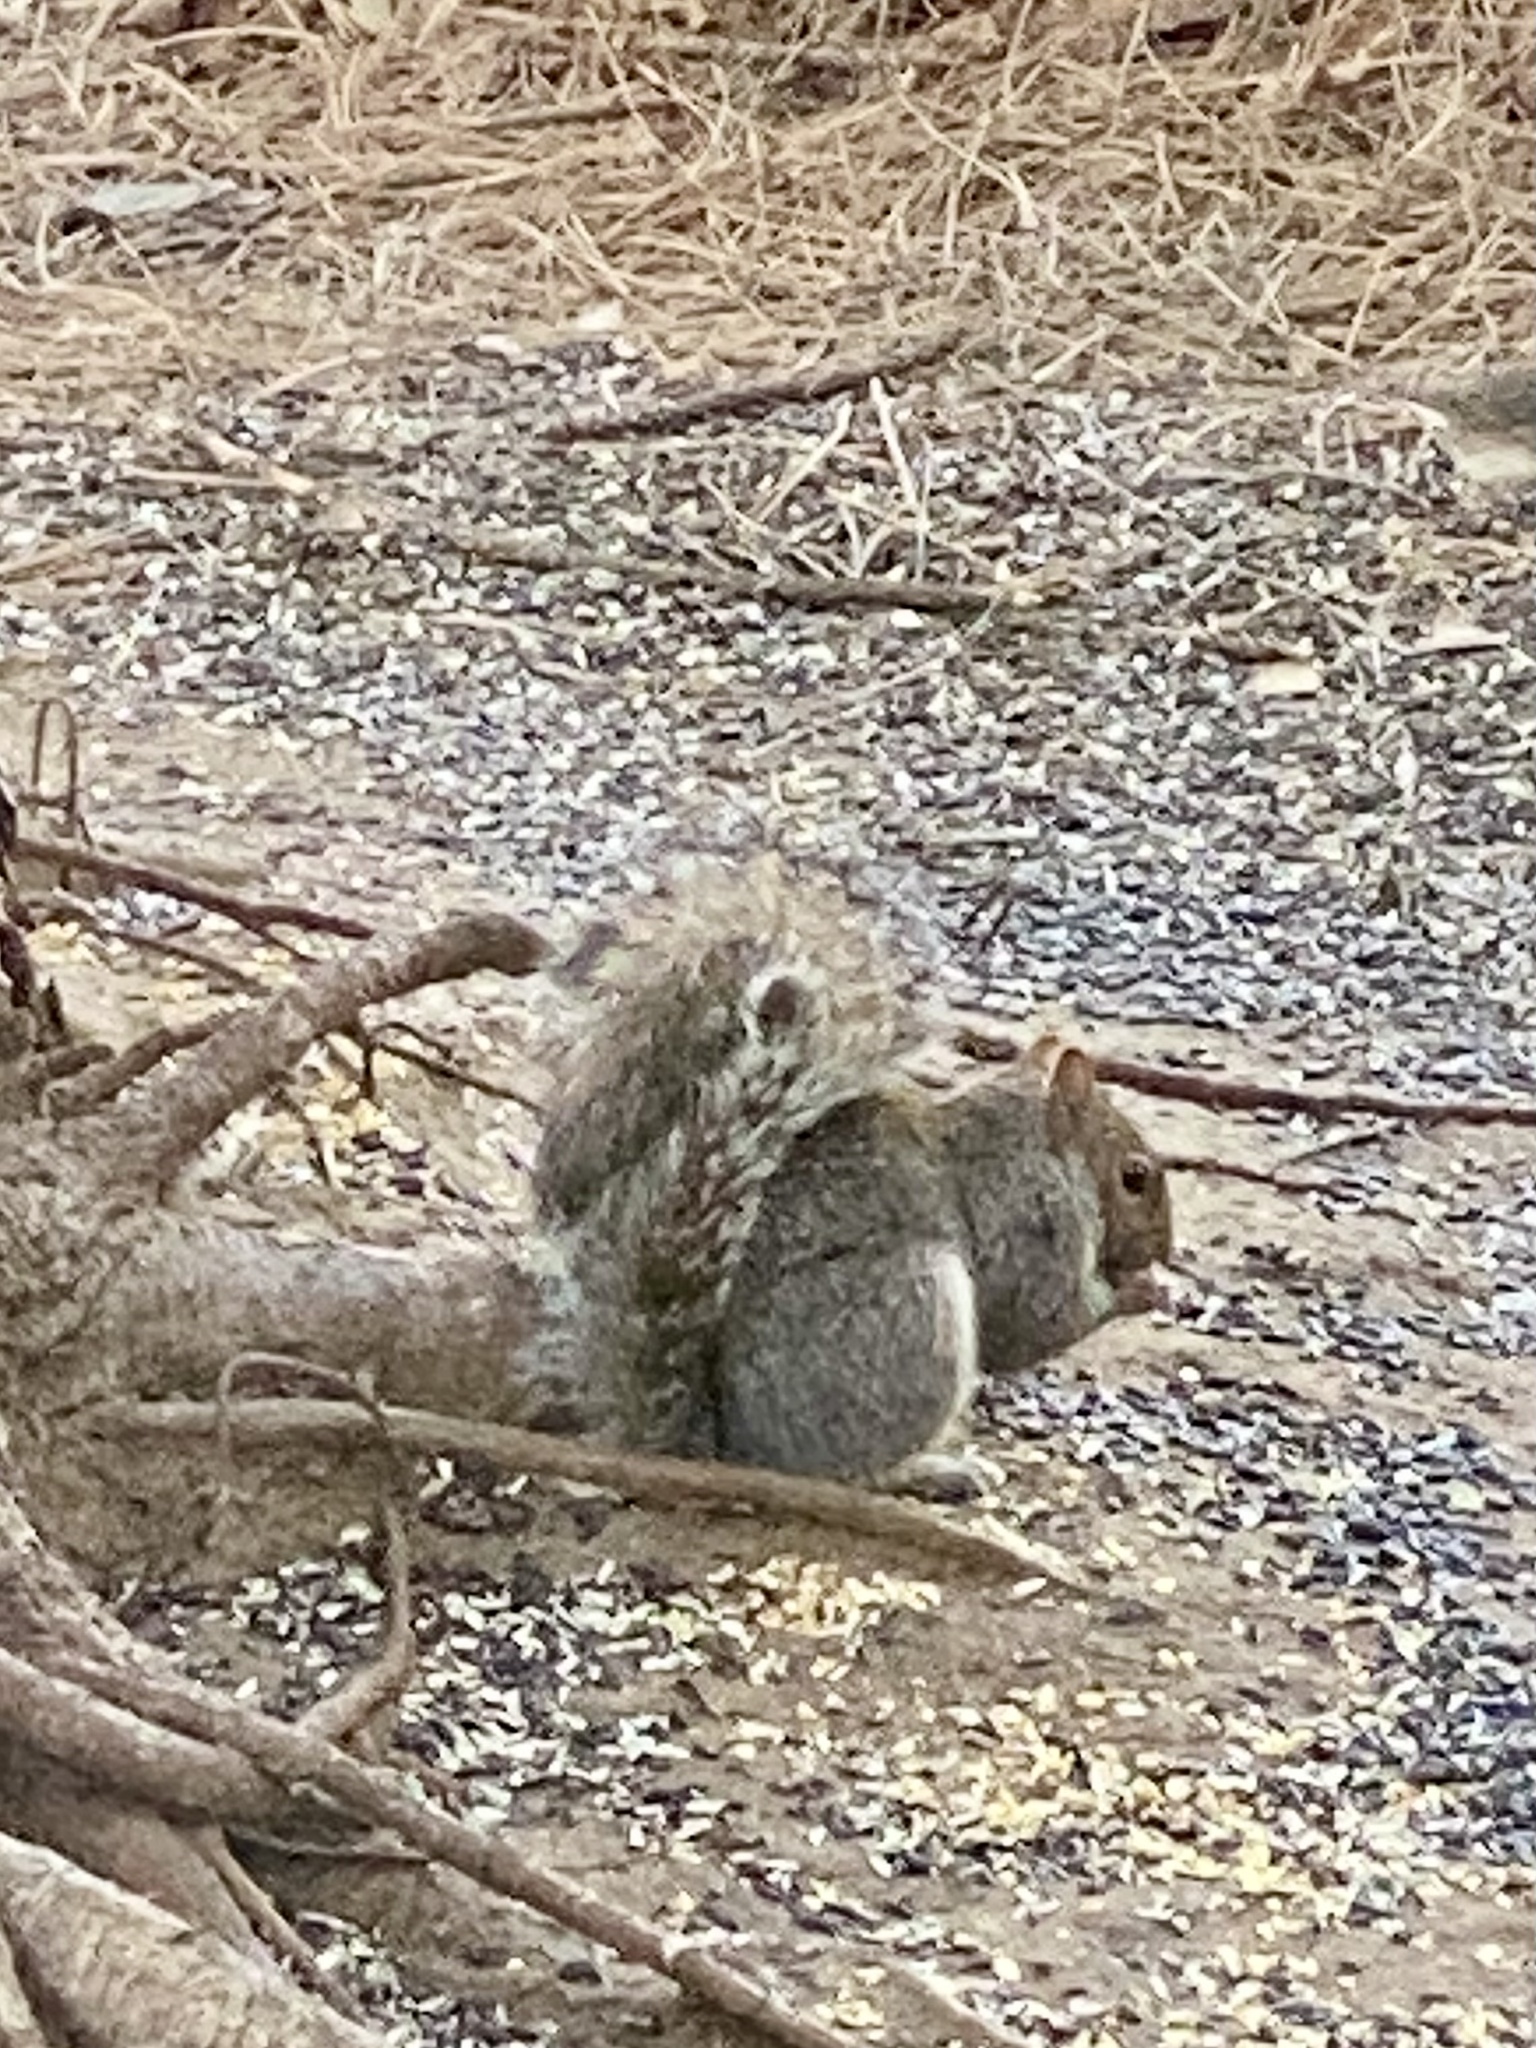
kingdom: Animalia
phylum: Chordata
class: Mammalia
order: Rodentia
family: Sciuridae
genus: Sciurus
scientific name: Sciurus carolinensis
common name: Eastern gray squirrel
